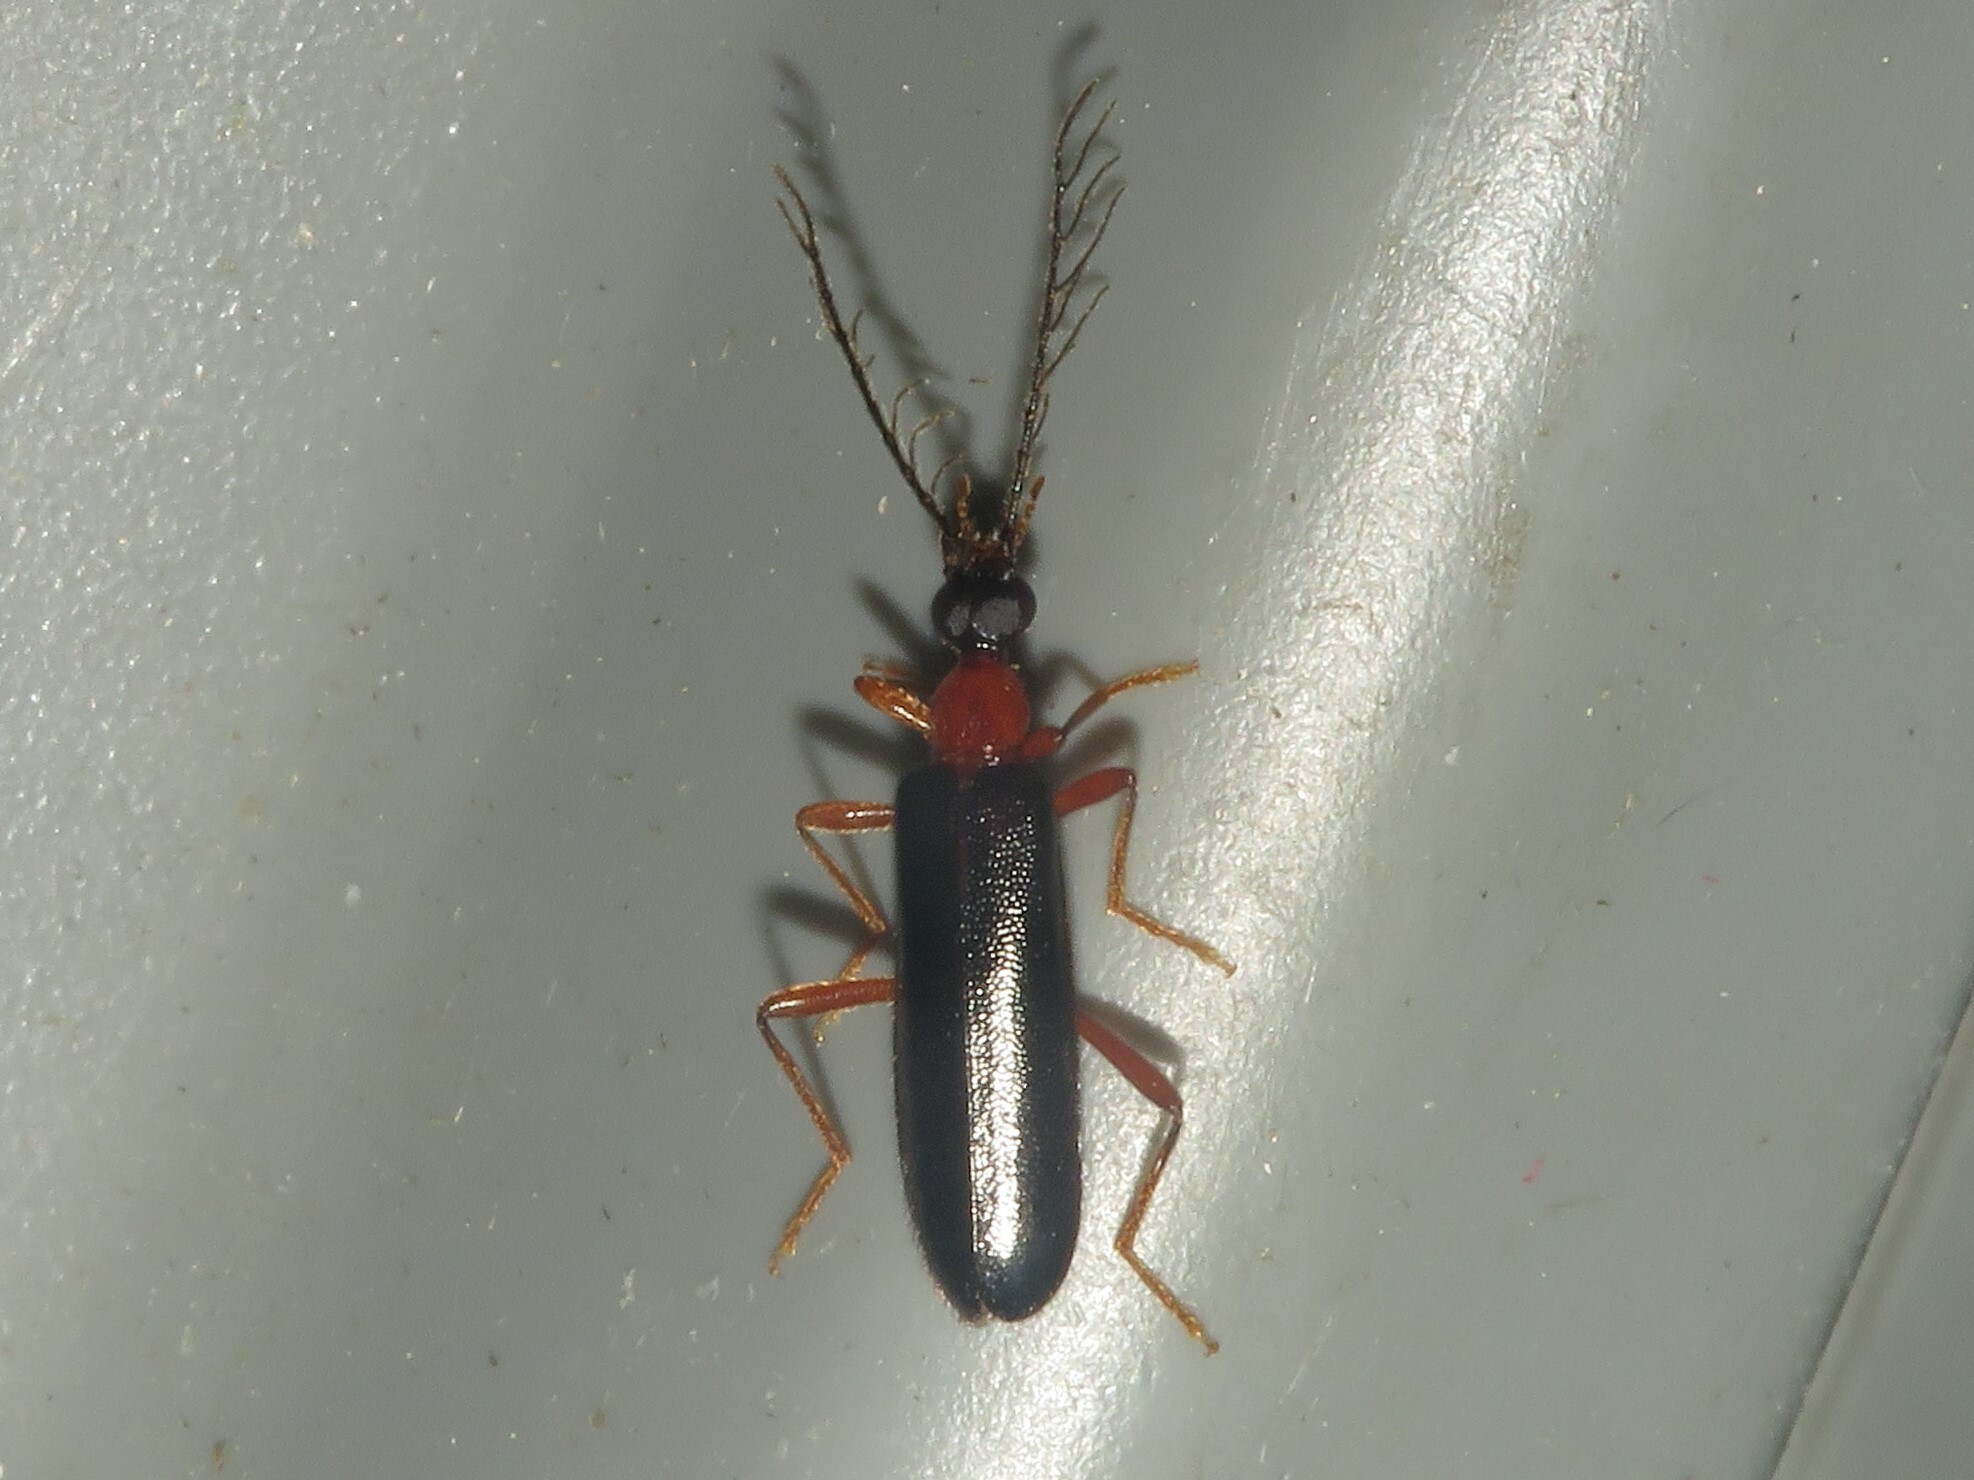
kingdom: Animalia
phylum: Arthropoda
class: Insecta
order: Coleoptera
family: Pyrochroidae
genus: Dendroides
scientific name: Dendroides canadensis
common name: Canada fire-colored beetle
